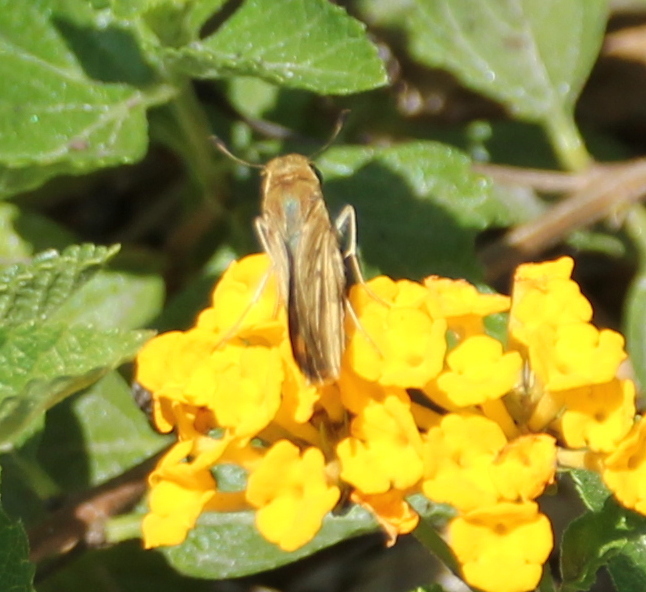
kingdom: Animalia
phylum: Arthropoda
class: Insecta
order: Lepidoptera
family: Hesperiidae
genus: Lerodea
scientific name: Lerodea eufala
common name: Eufala skipper
